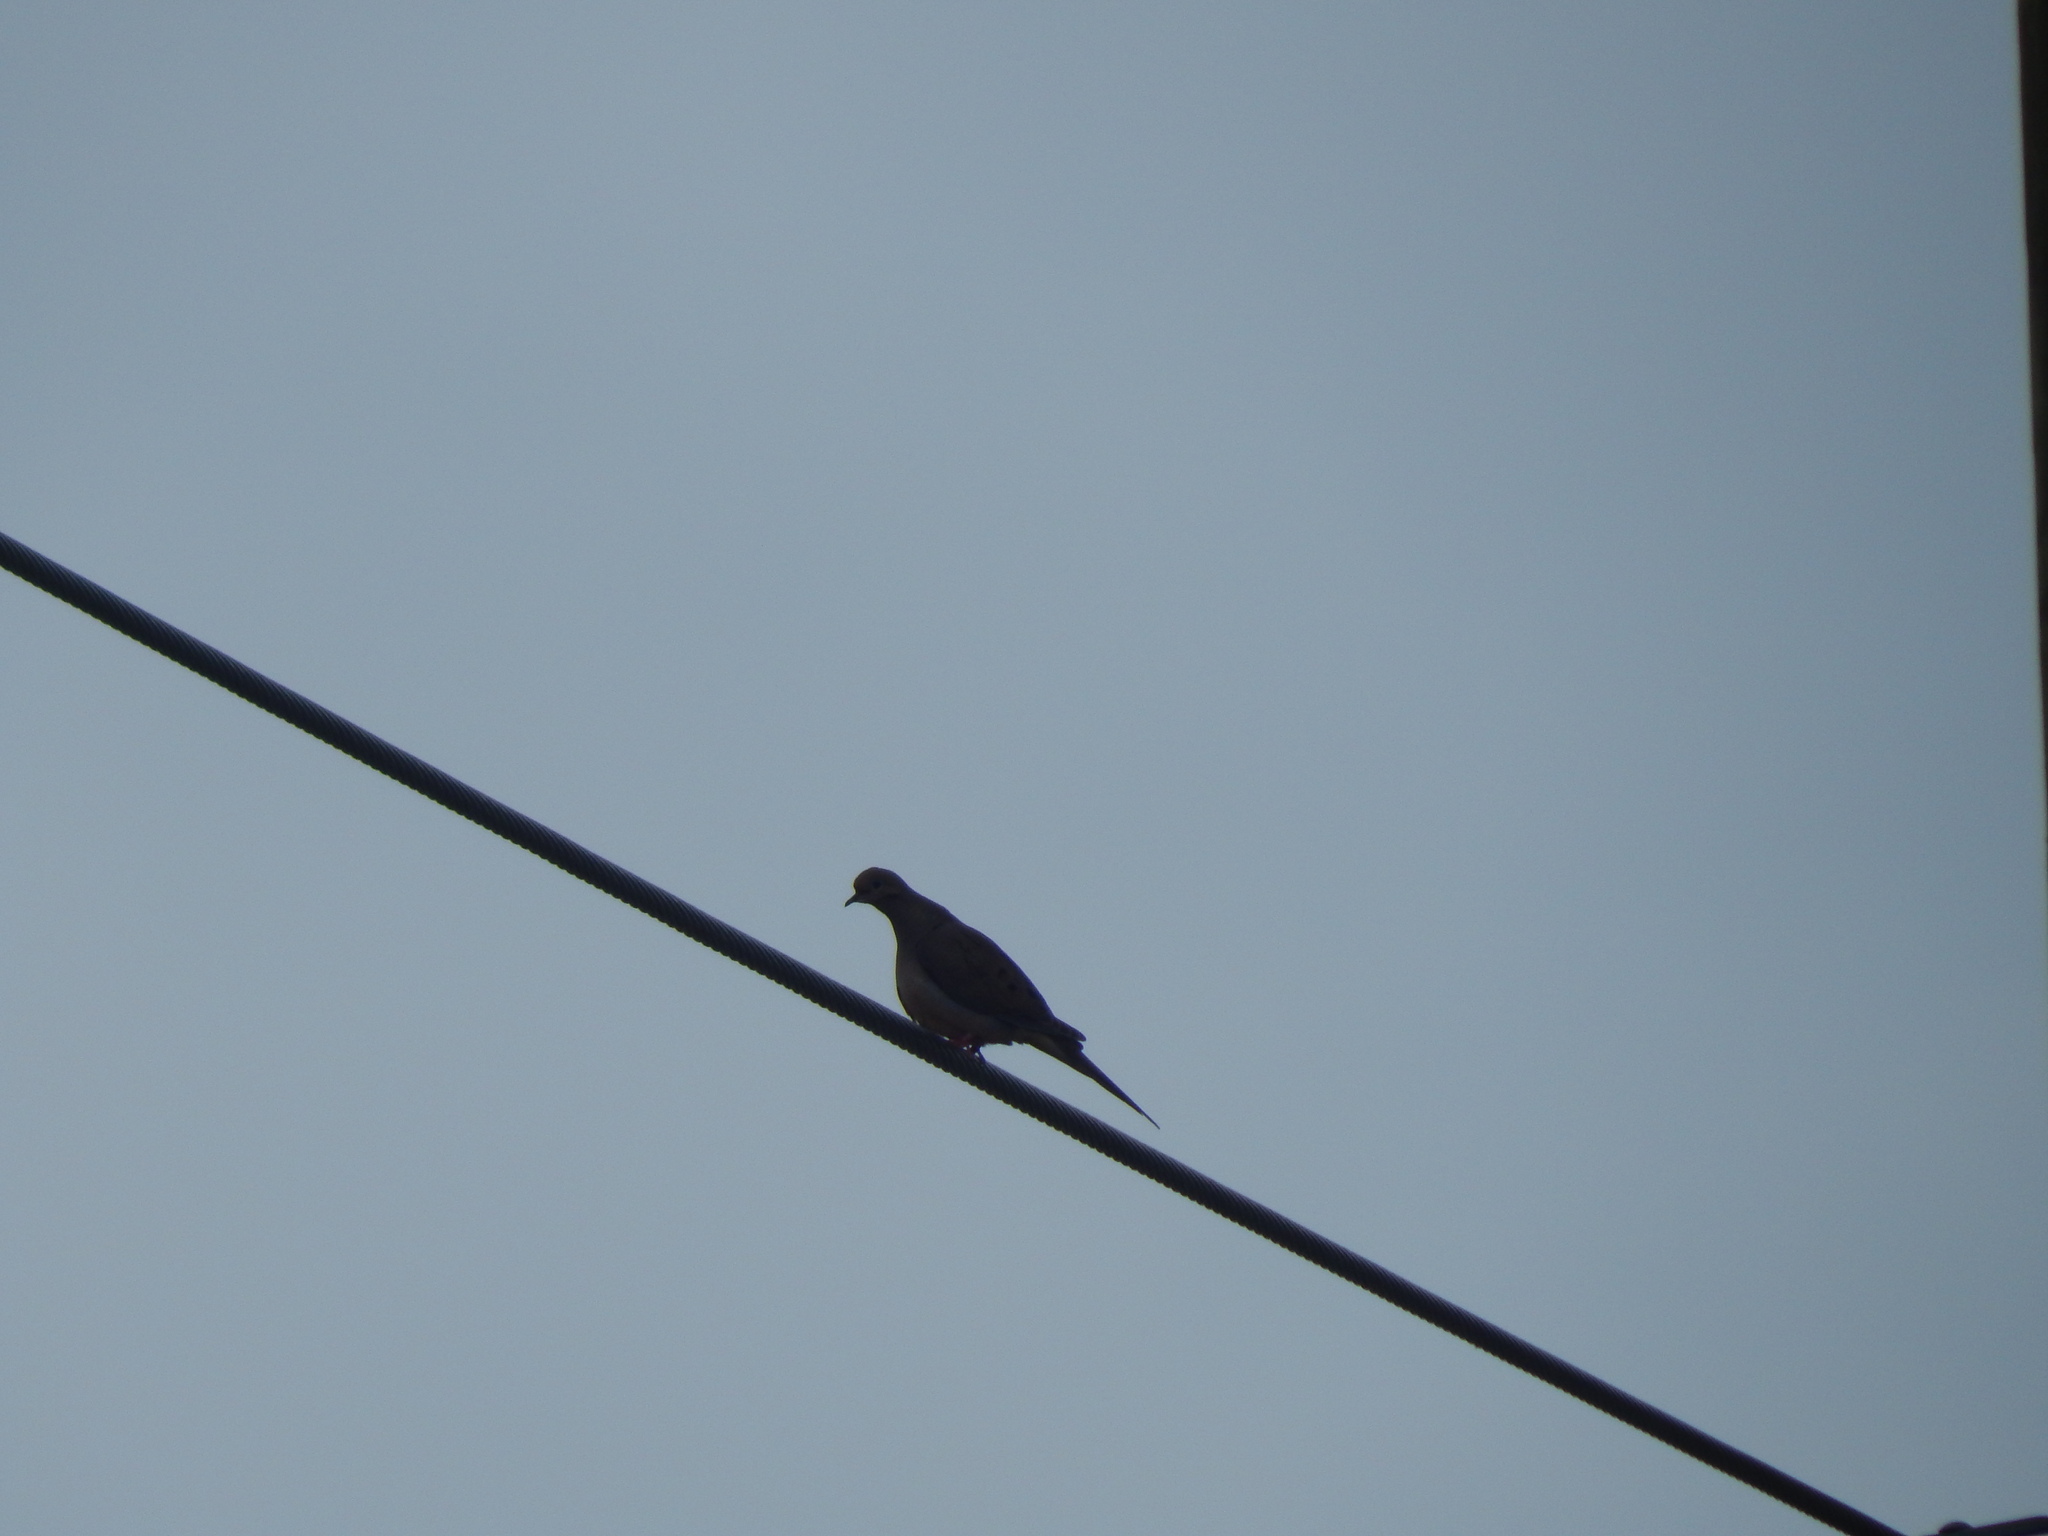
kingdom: Animalia
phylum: Chordata
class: Aves
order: Columbiformes
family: Columbidae
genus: Zenaida
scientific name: Zenaida macroura
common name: Mourning dove
